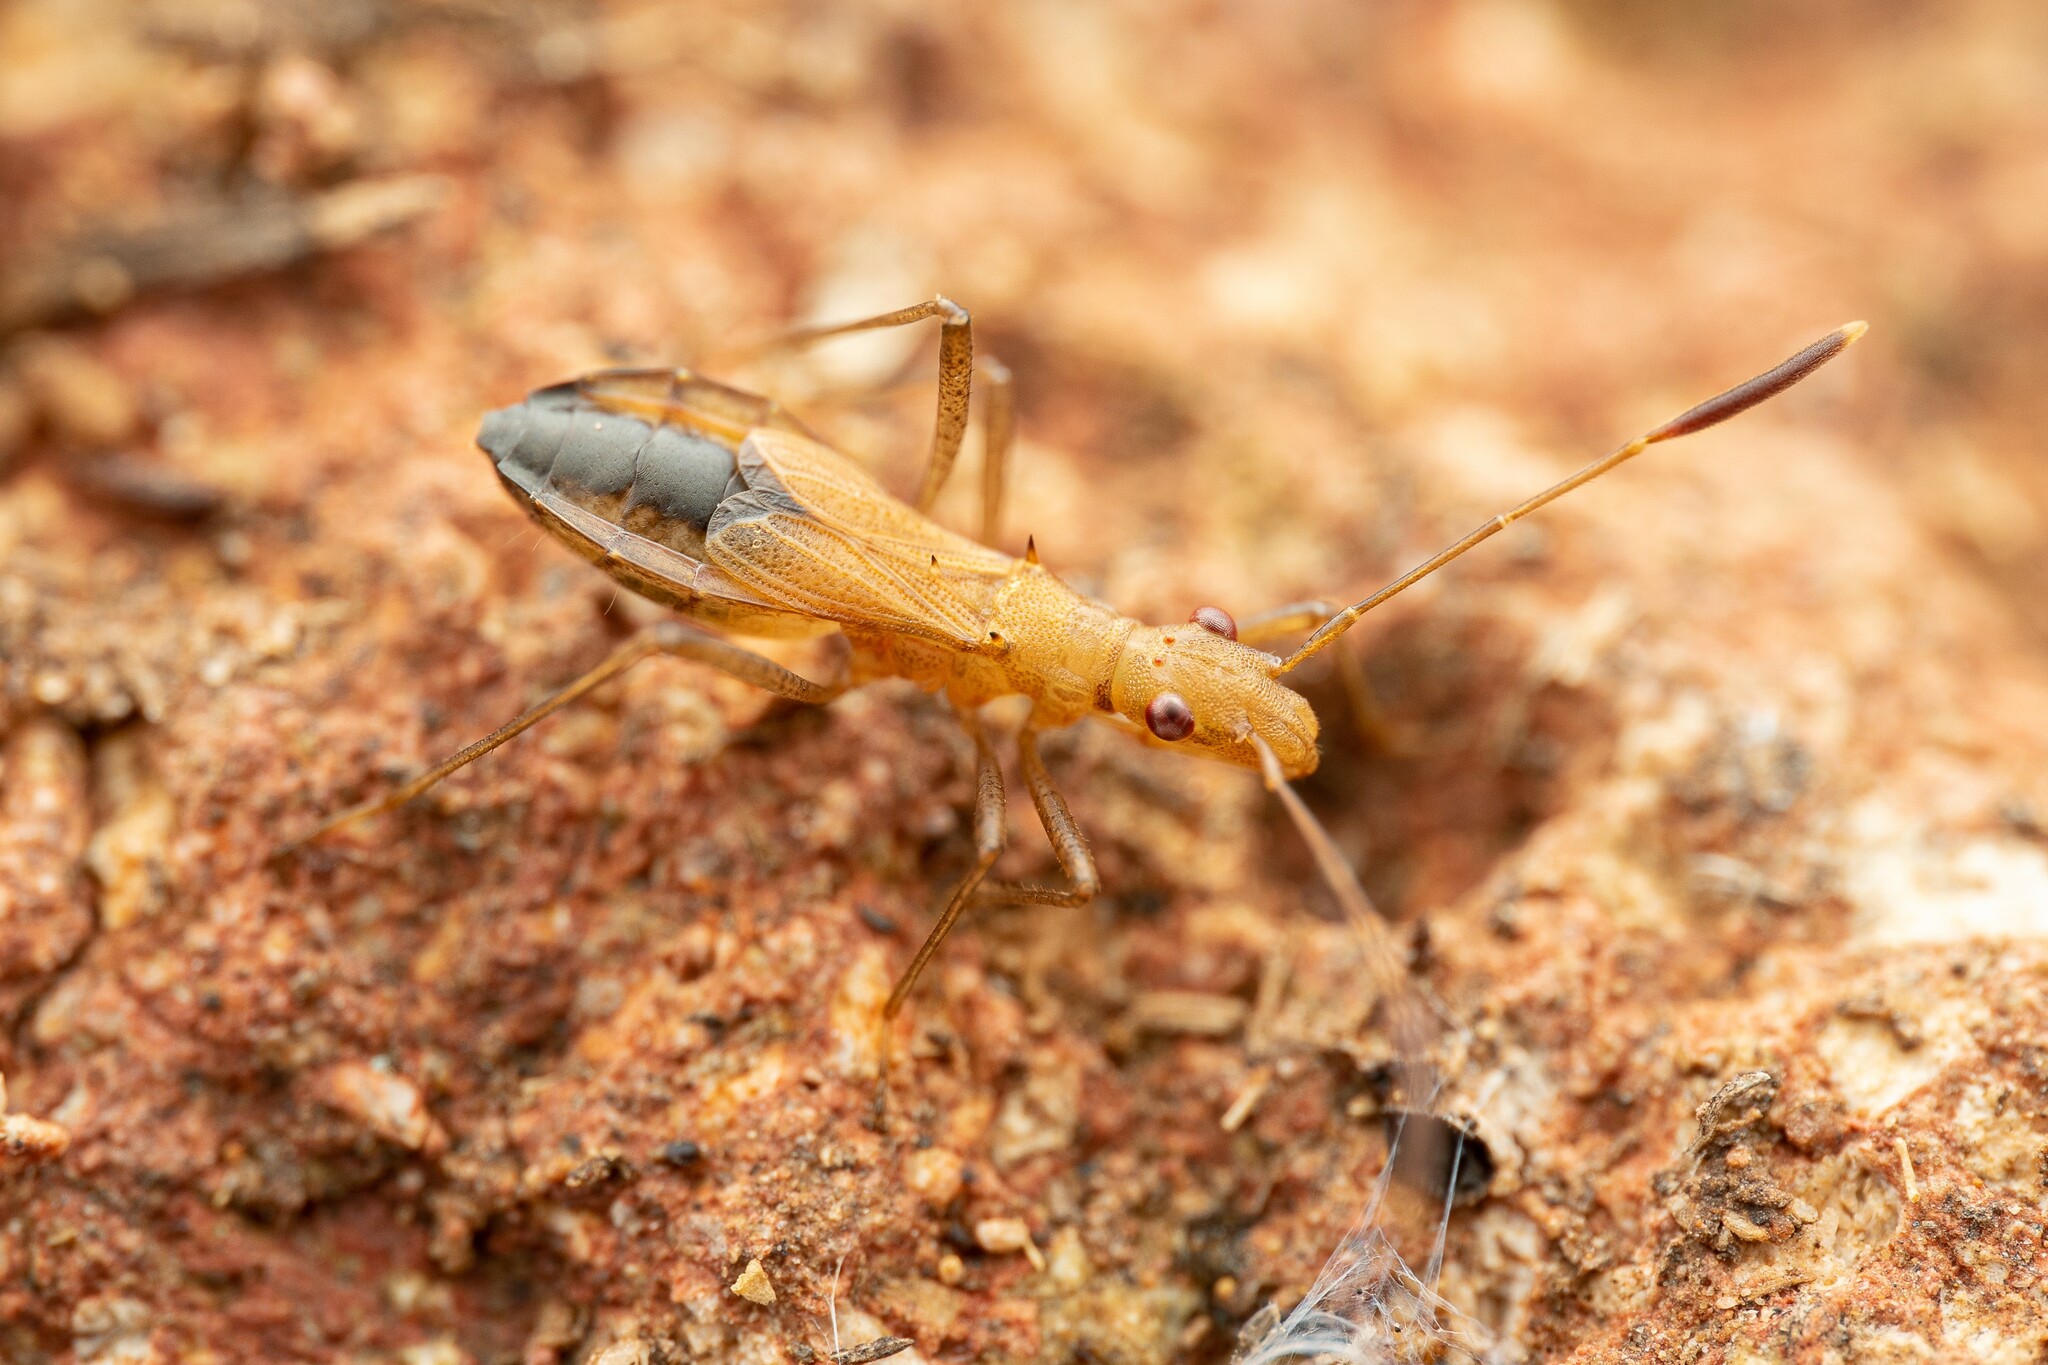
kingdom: Animalia
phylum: Arthropoda
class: Insecta
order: Hemiptera
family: Alydidae
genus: Cydamus
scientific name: Cydamus abditus
